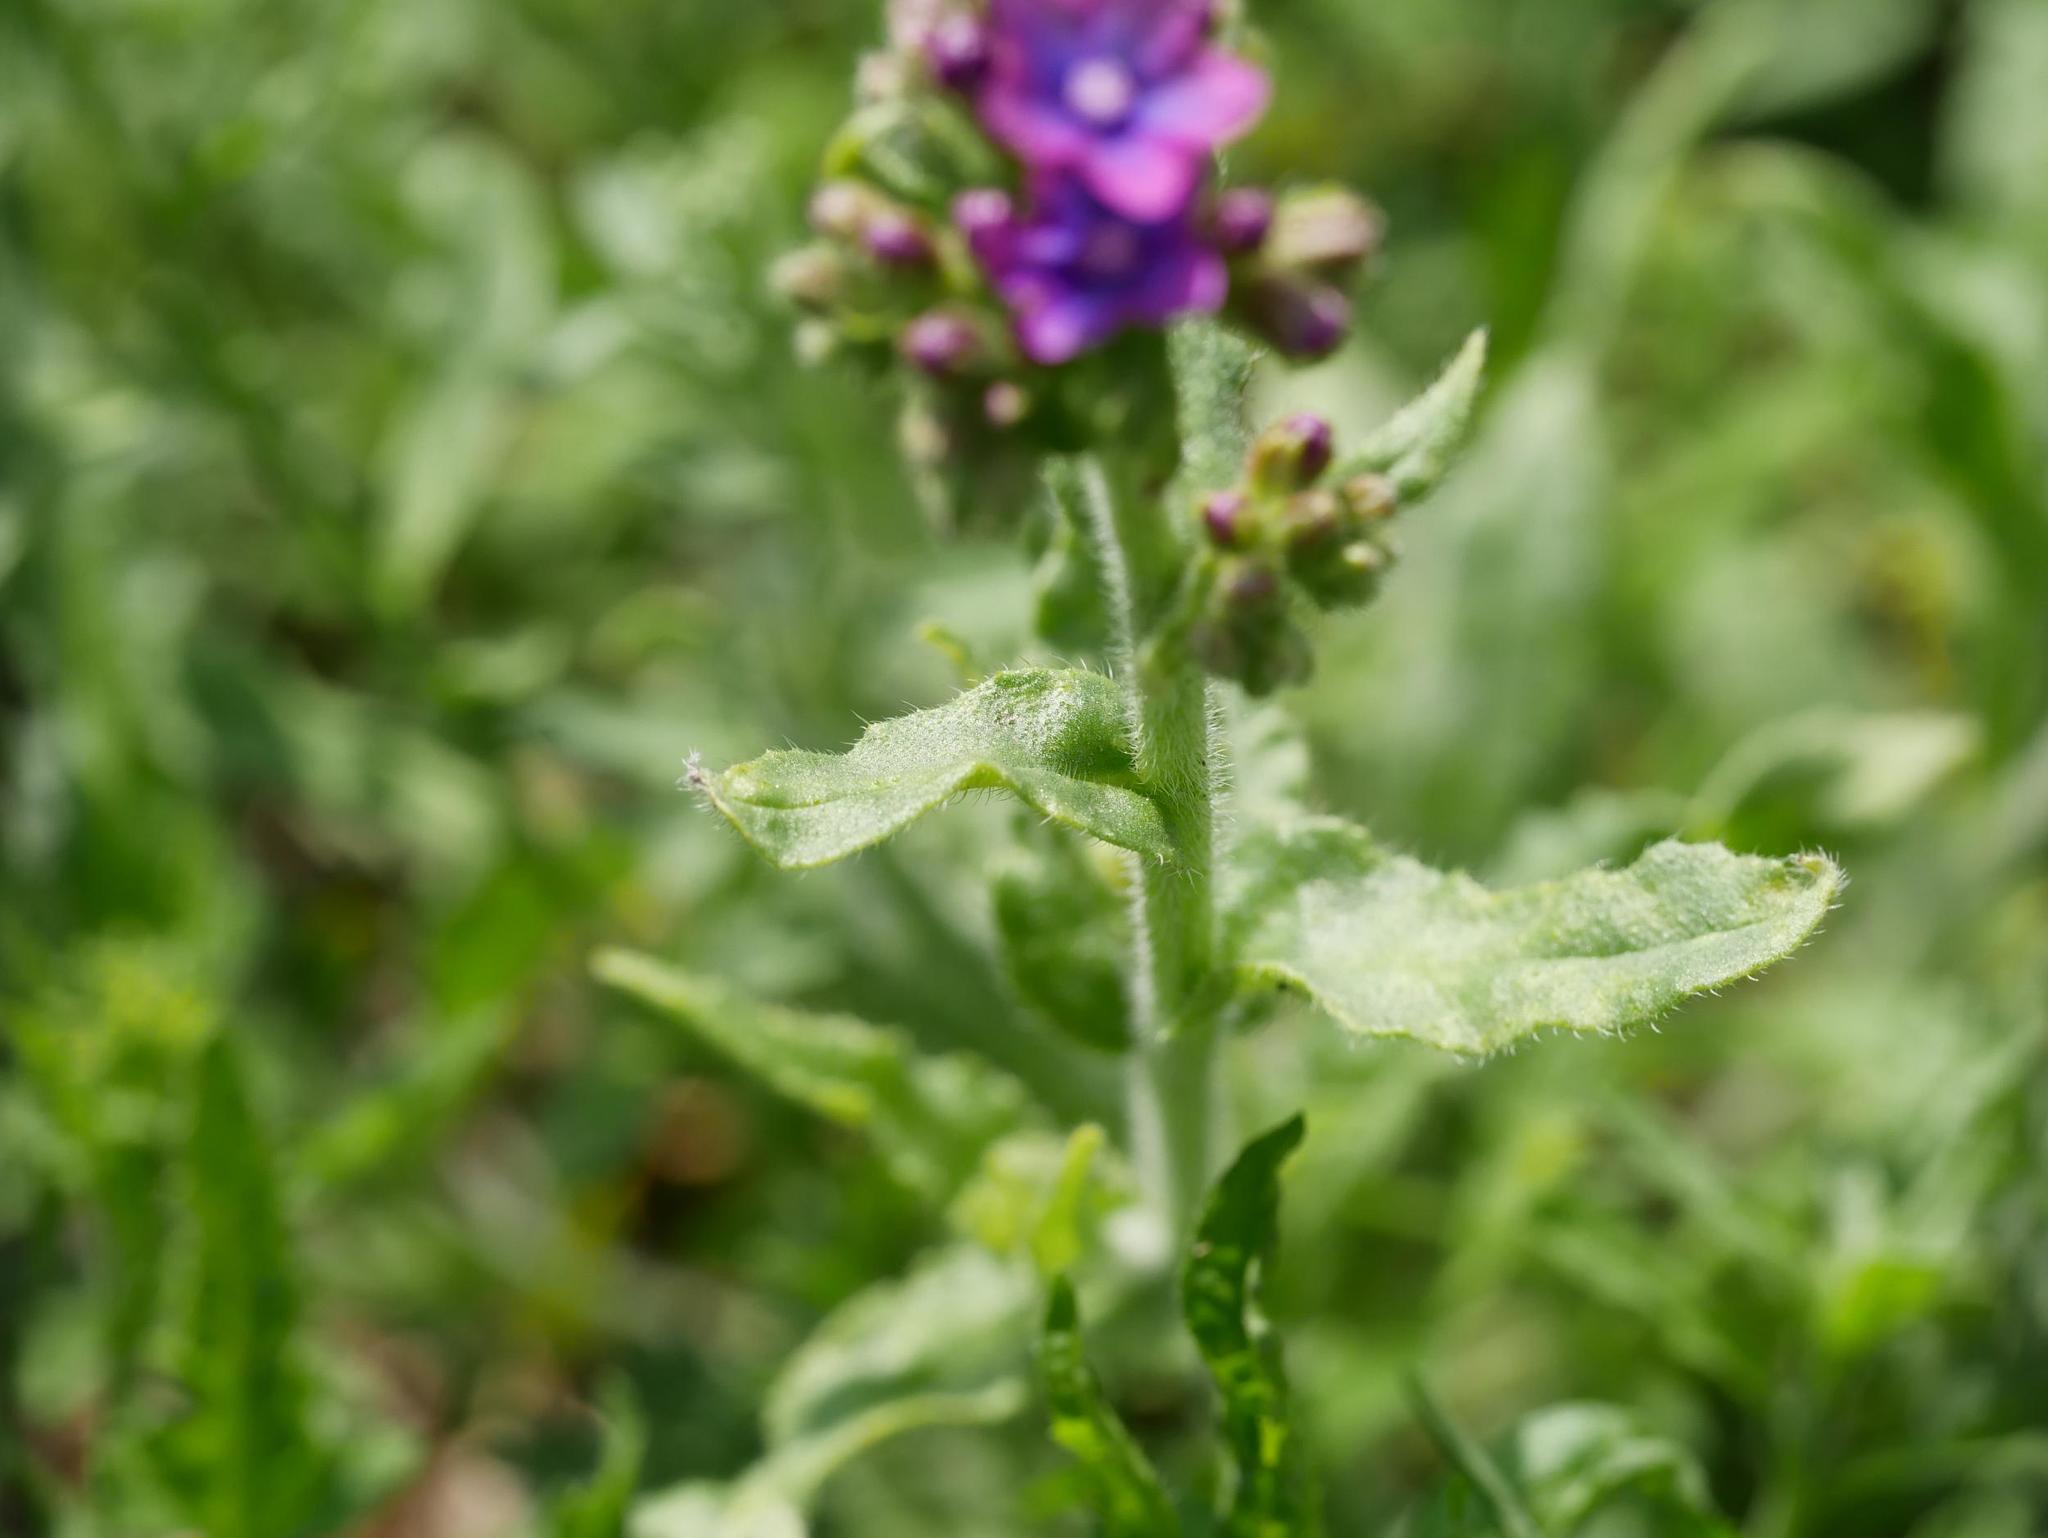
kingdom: Plantae
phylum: Tracheophyta
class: Magnoliopsida
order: Boraginales
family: Boraginaceae
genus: Anchusa
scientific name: Anchusa officinalis
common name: Alkanet
